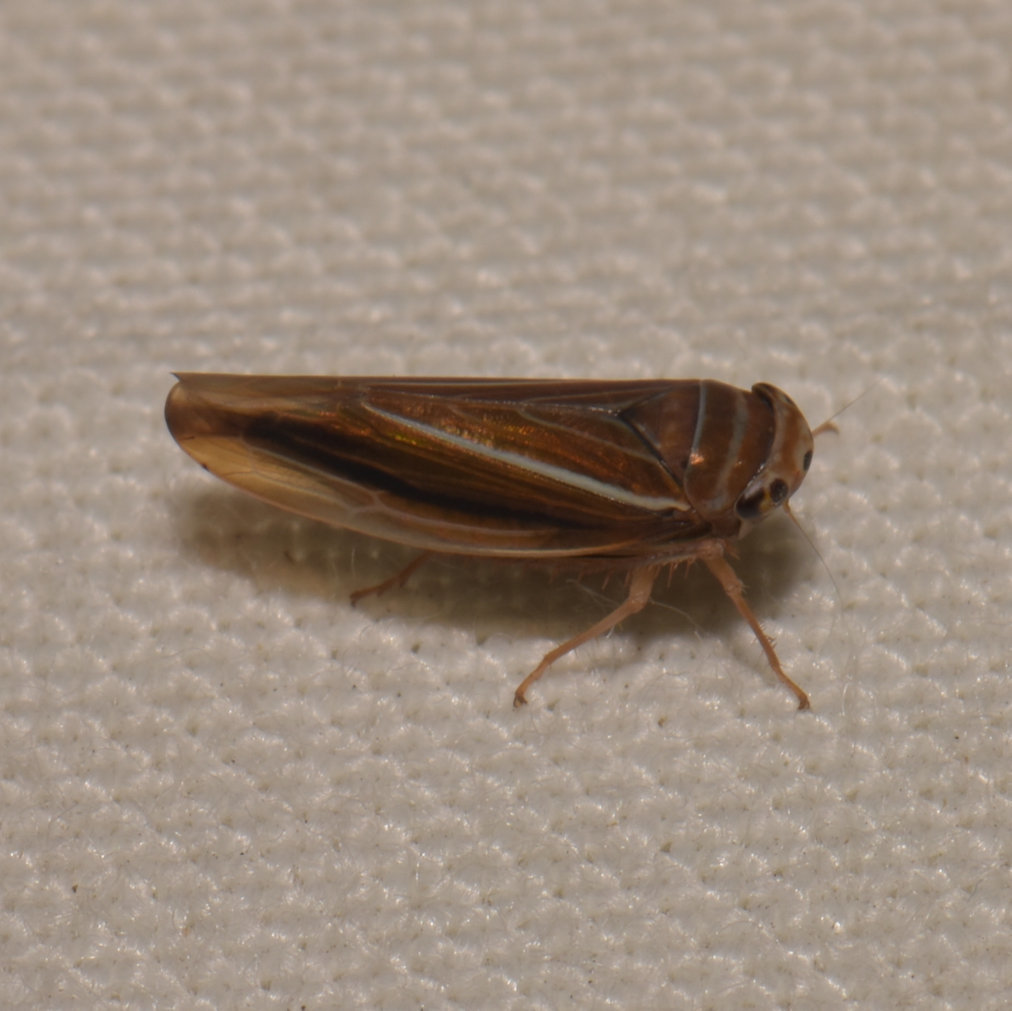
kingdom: Animalia
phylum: Arthropoda
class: Insecta
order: Hemiptera
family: Cicadellidae
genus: Idiodonus
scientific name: Idiodonus kennicotti
